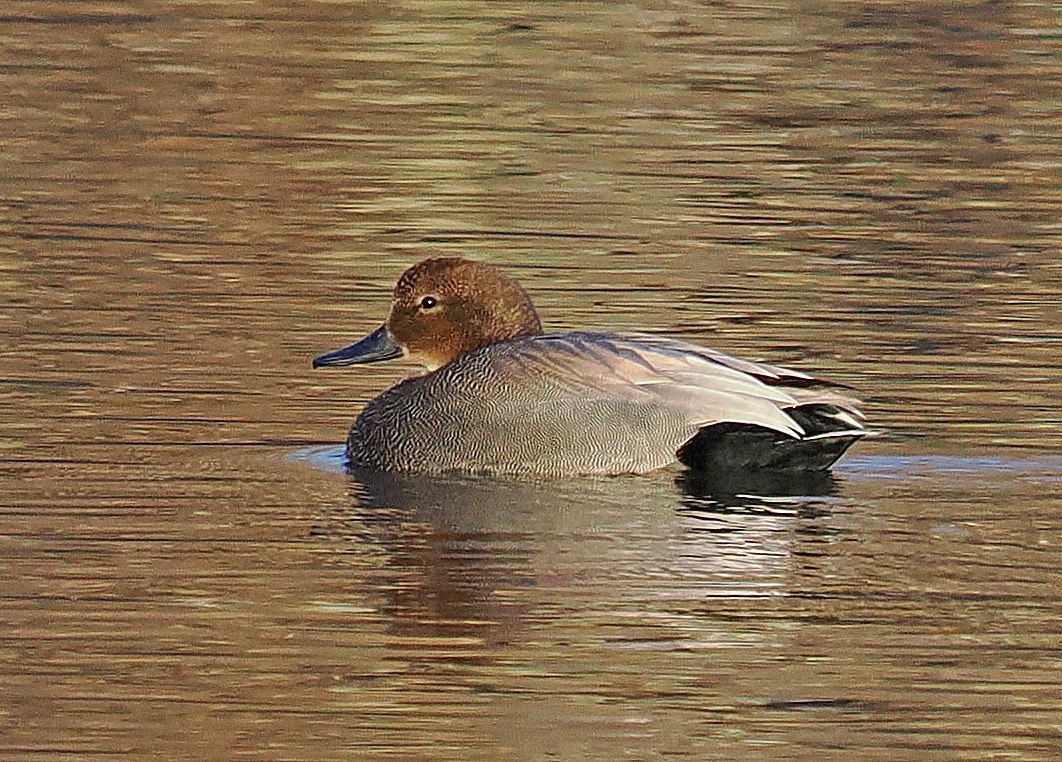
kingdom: Animalia
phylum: Chordata
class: Aves
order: Anseriformes
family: Anatidae
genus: Mareca
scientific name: Mareca strepera
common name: Gadwall
